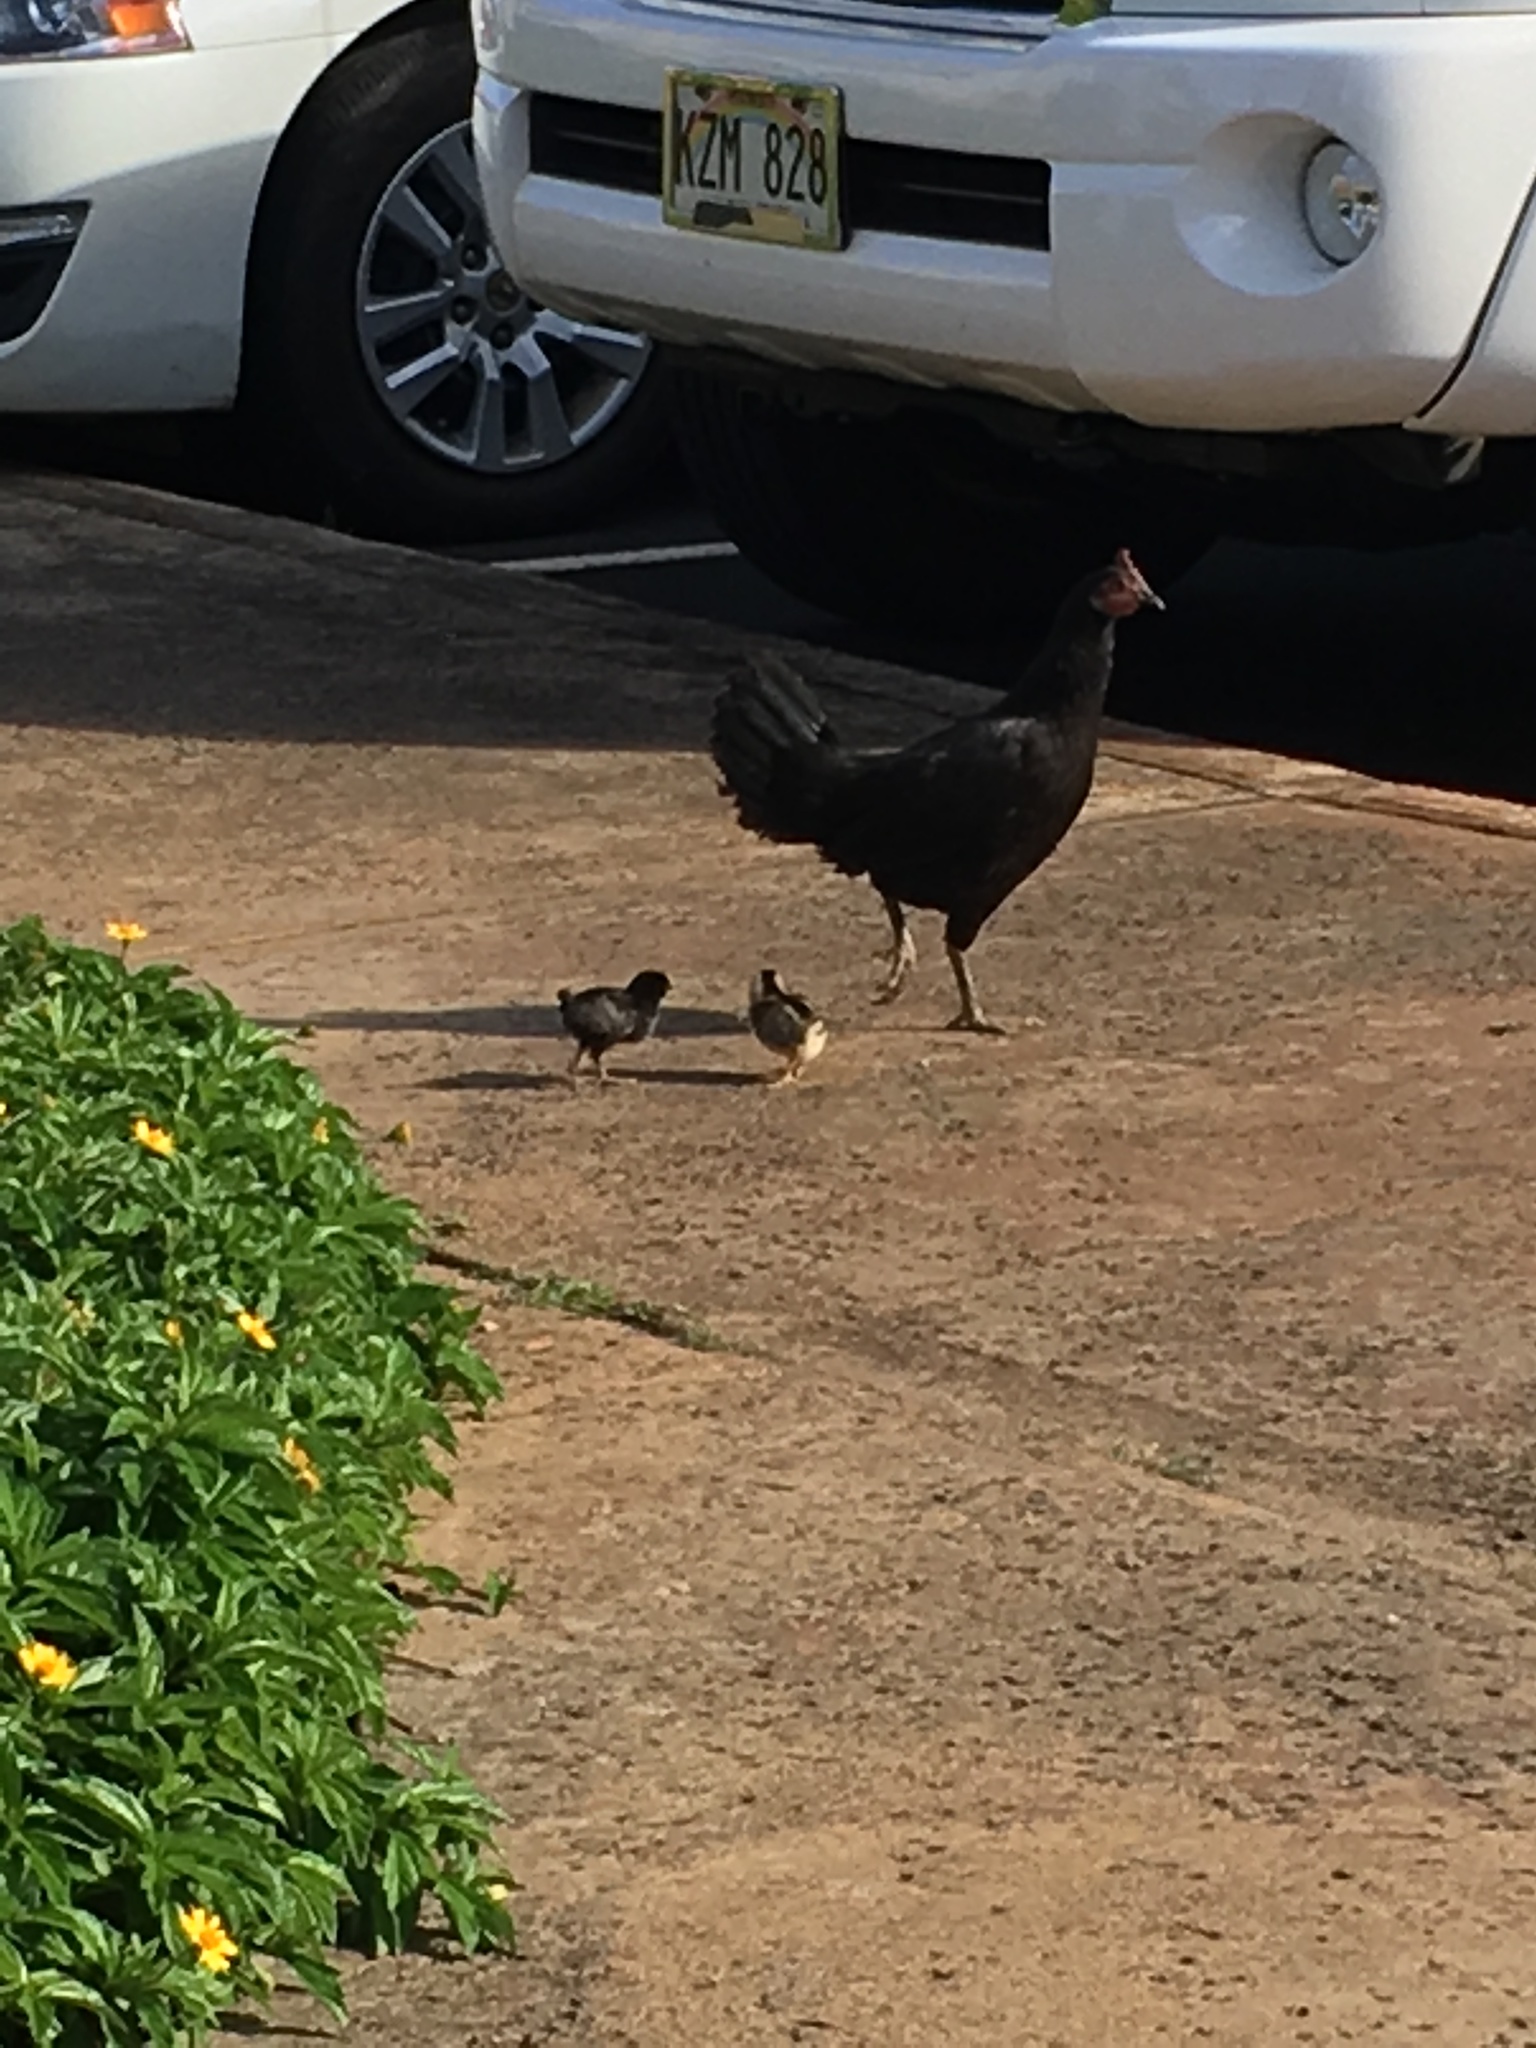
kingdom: Animalia
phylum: Chordata
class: Aves
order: Galliformes
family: Phasianidae
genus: Gallus
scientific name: Gallus gallus
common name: Red junglefowl
